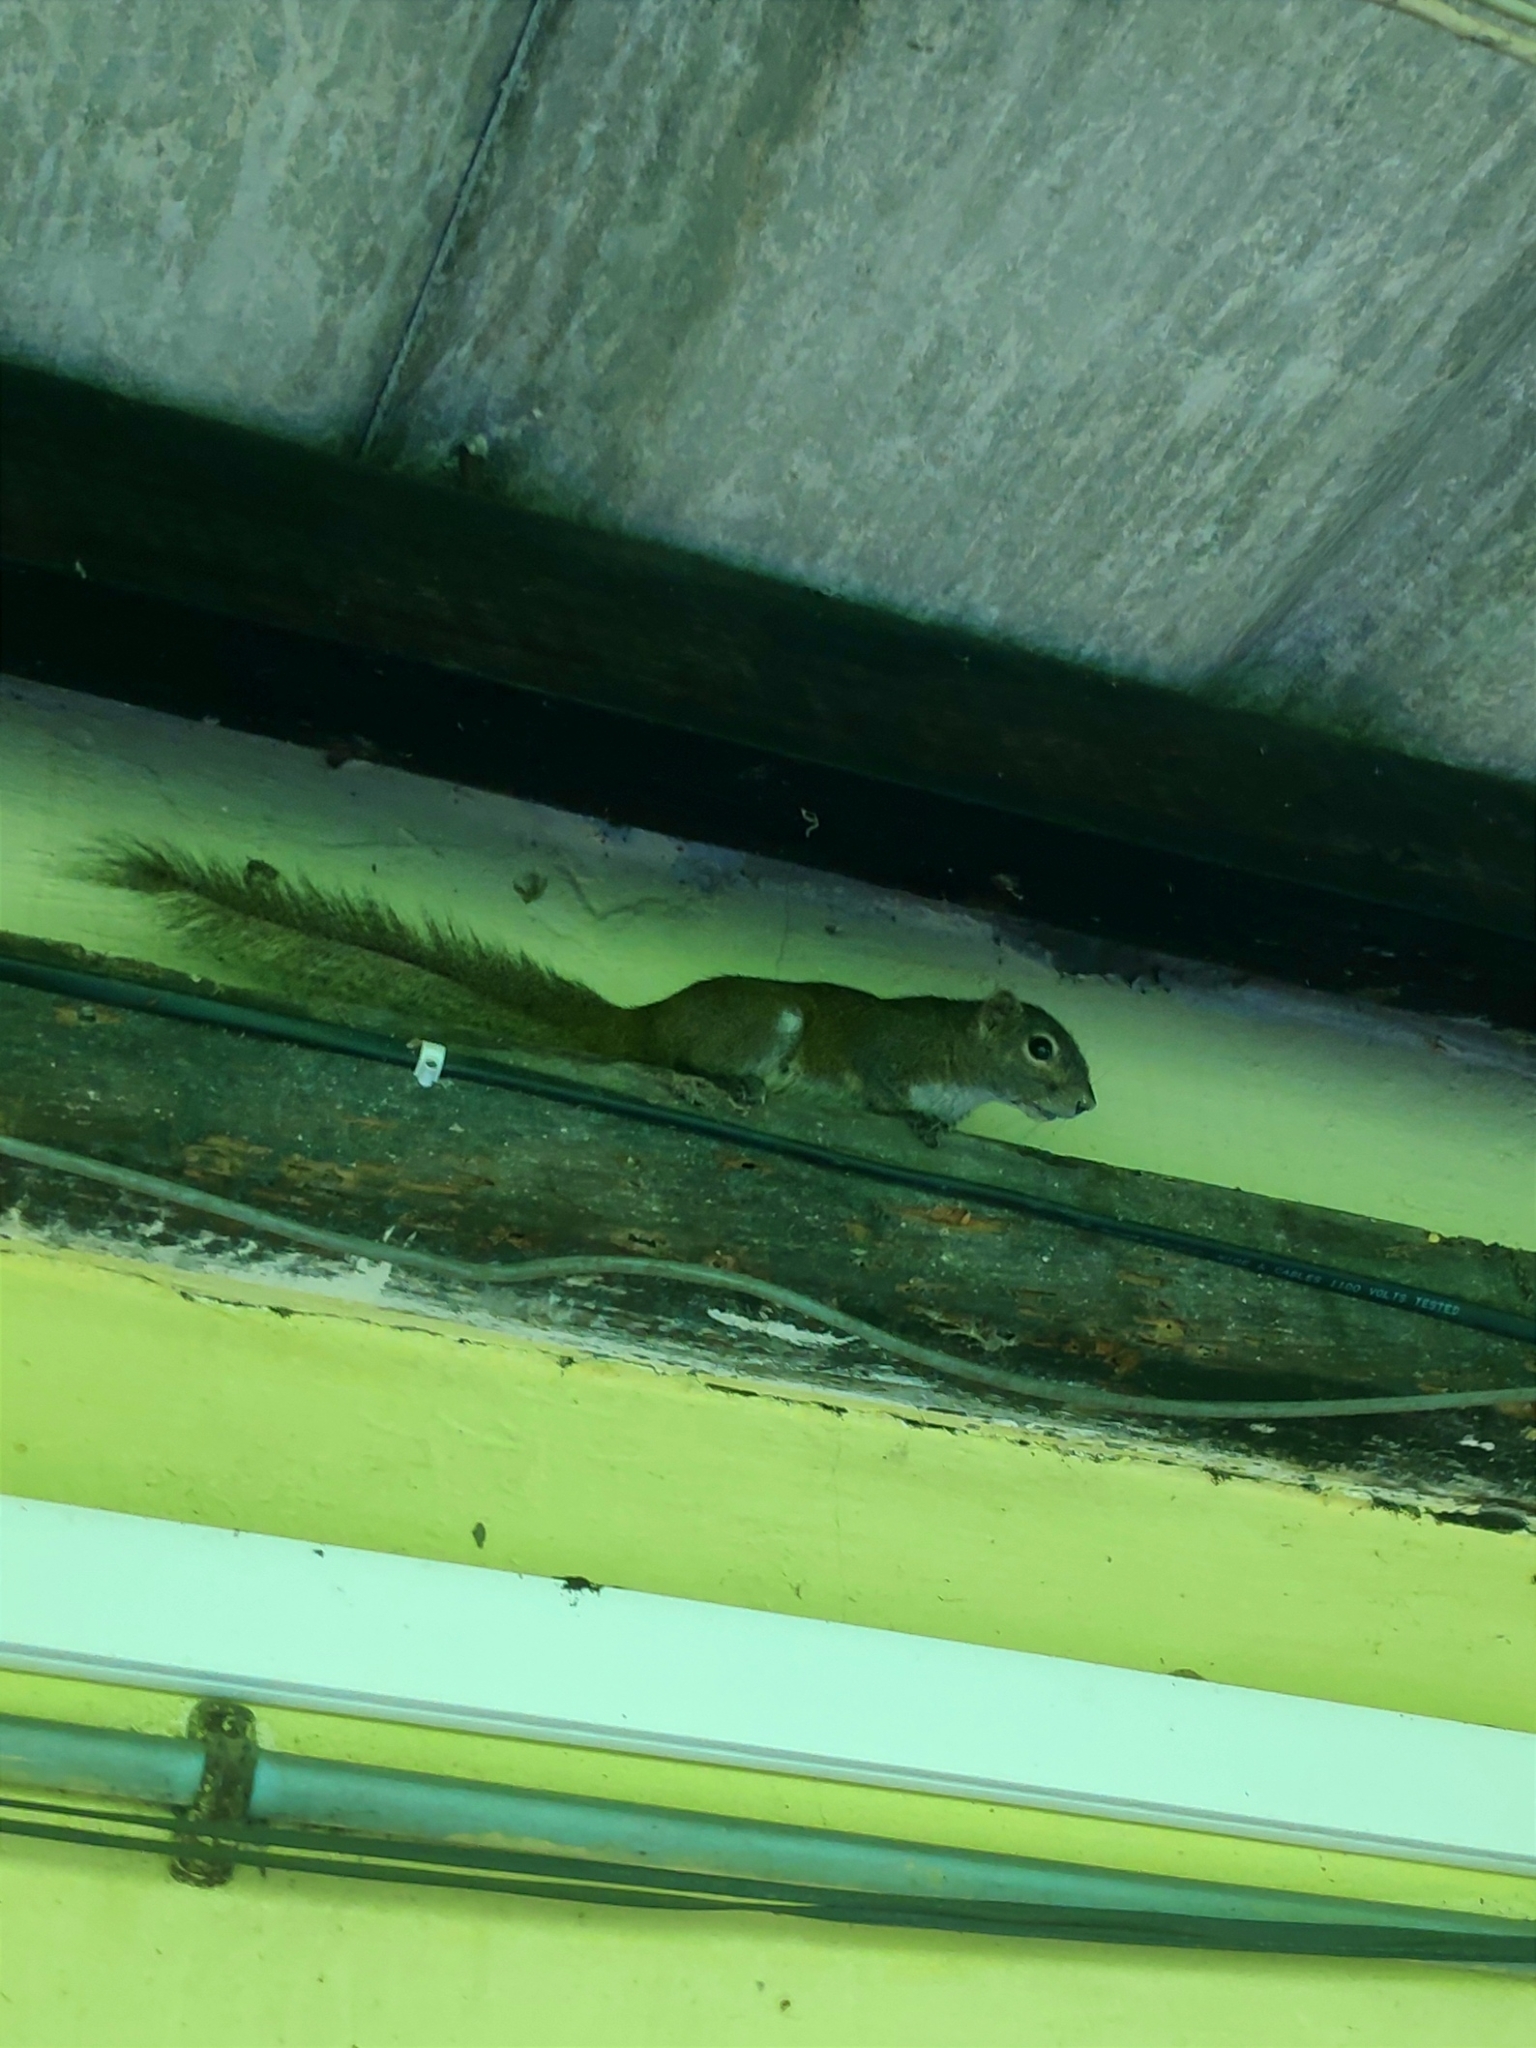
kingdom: Animalia
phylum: Chordata
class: Mammalia
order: Rodentia
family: Sciuridae
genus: Callosciurus
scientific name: Callosciurus pygerythrus
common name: Irrawaddy squirrel
